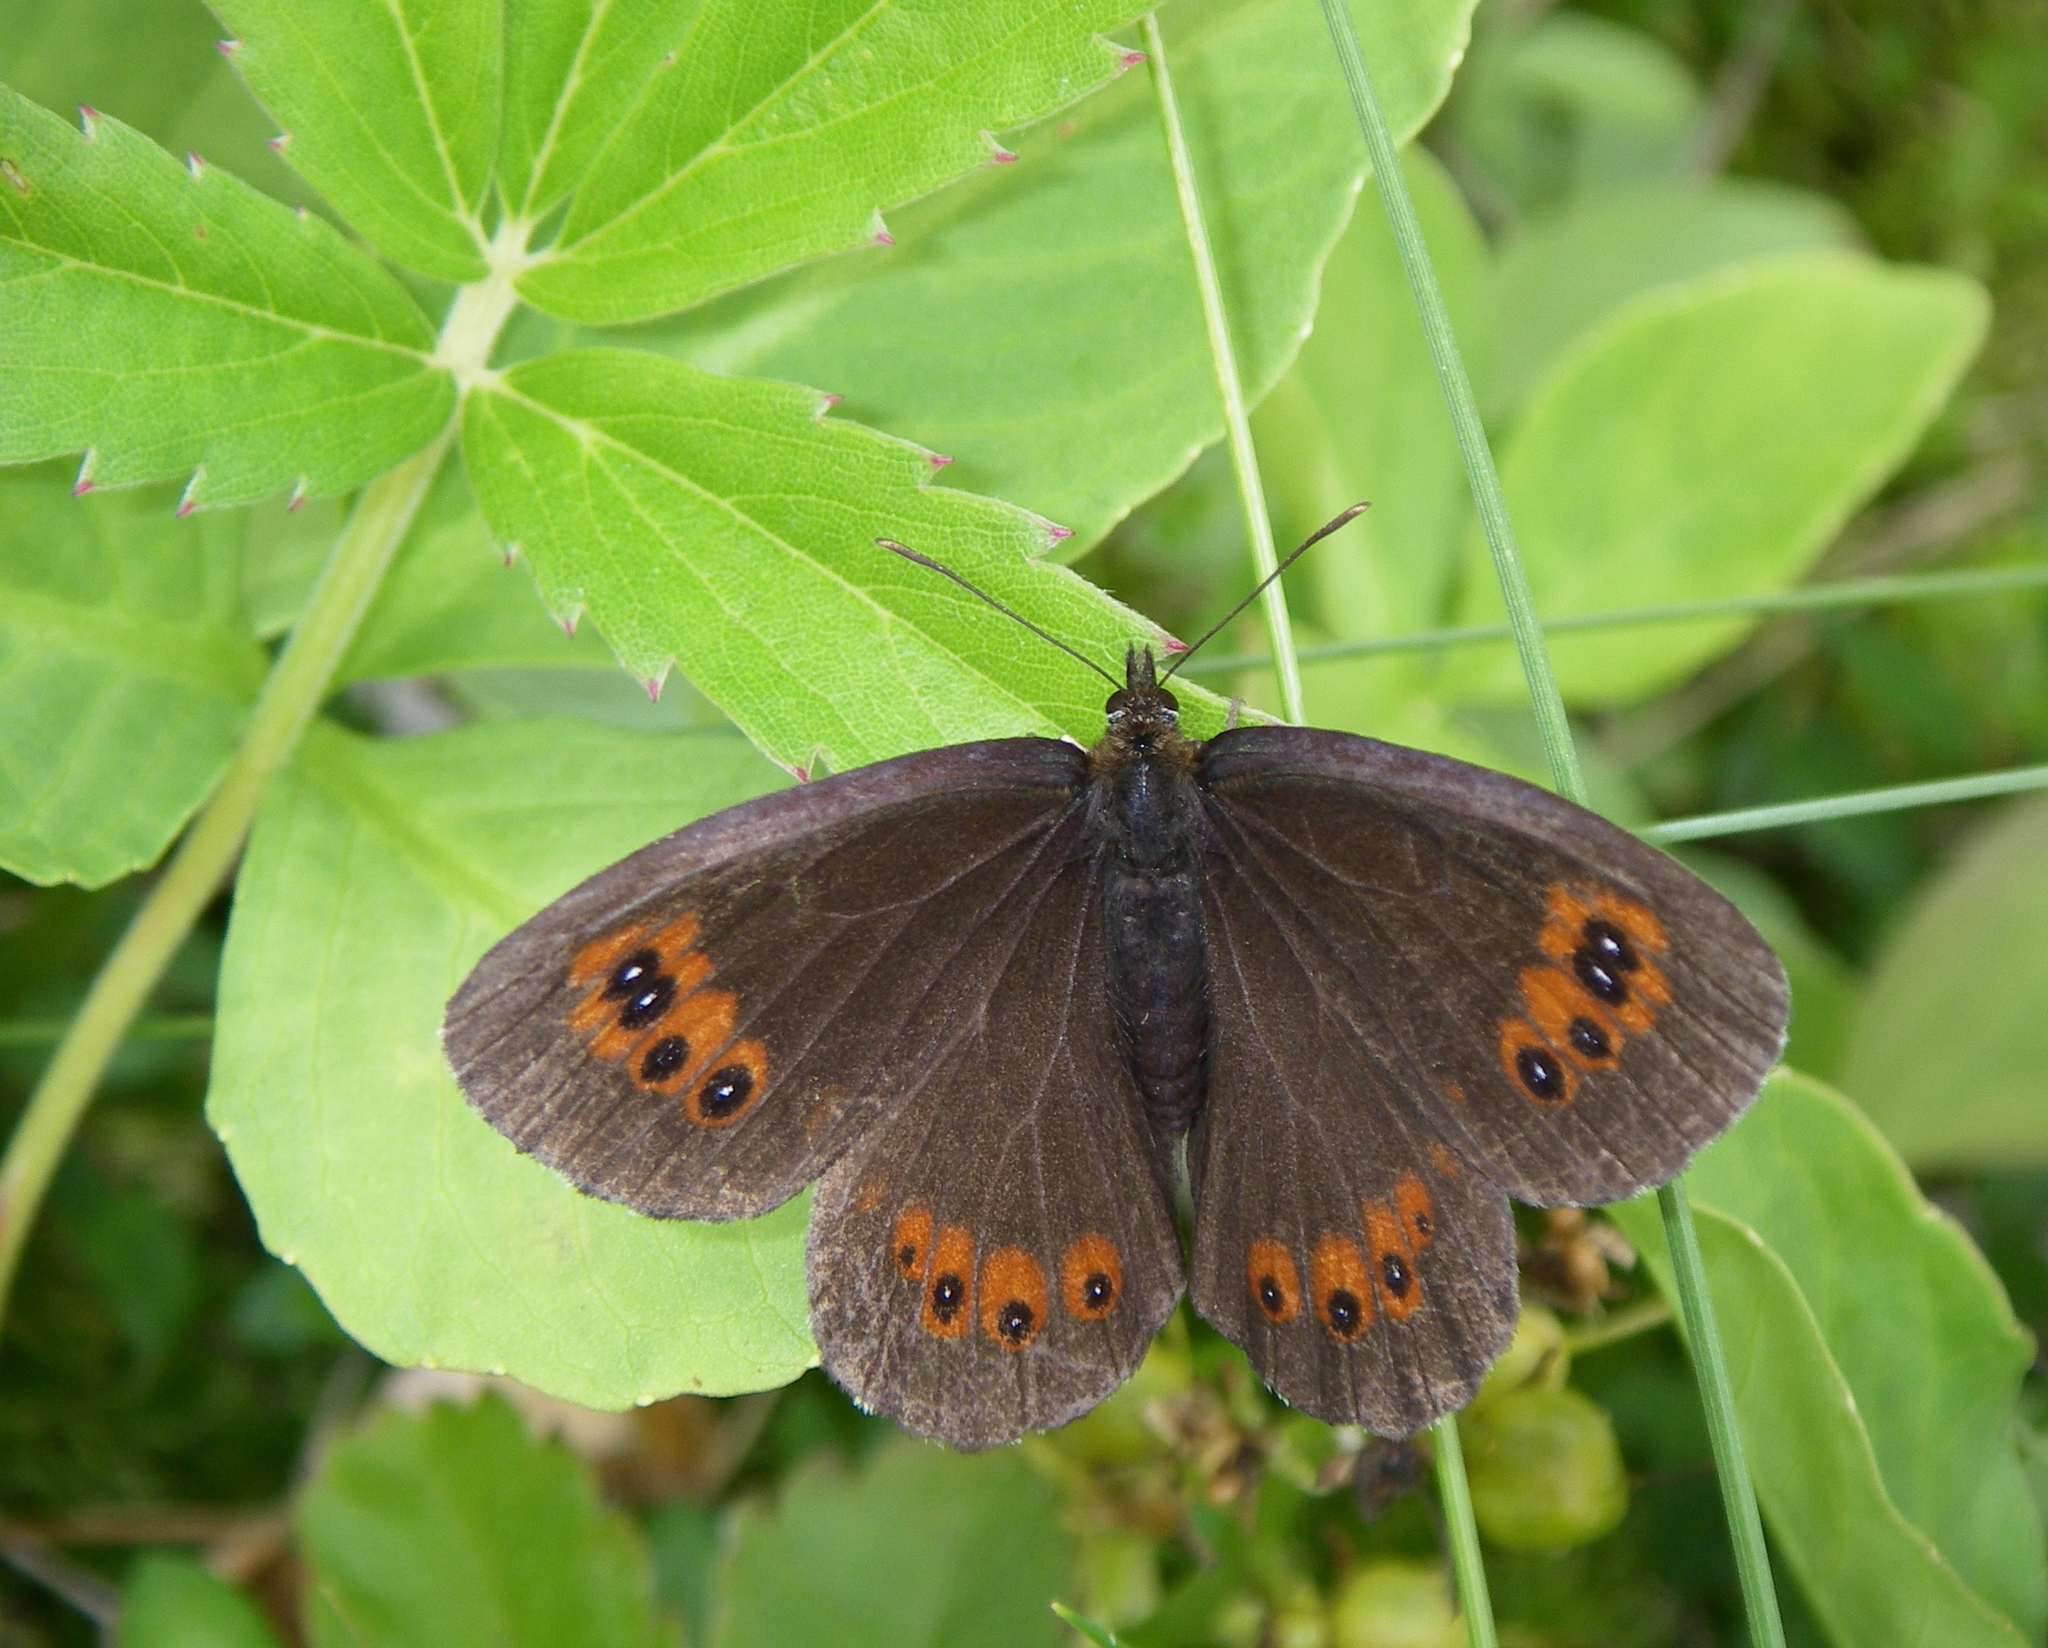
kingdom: Animalia
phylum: Arthropoda
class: Insecta
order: Lepidoptera
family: Nymphalidae
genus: Erebia
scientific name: Erebia ligea
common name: Arran brown
